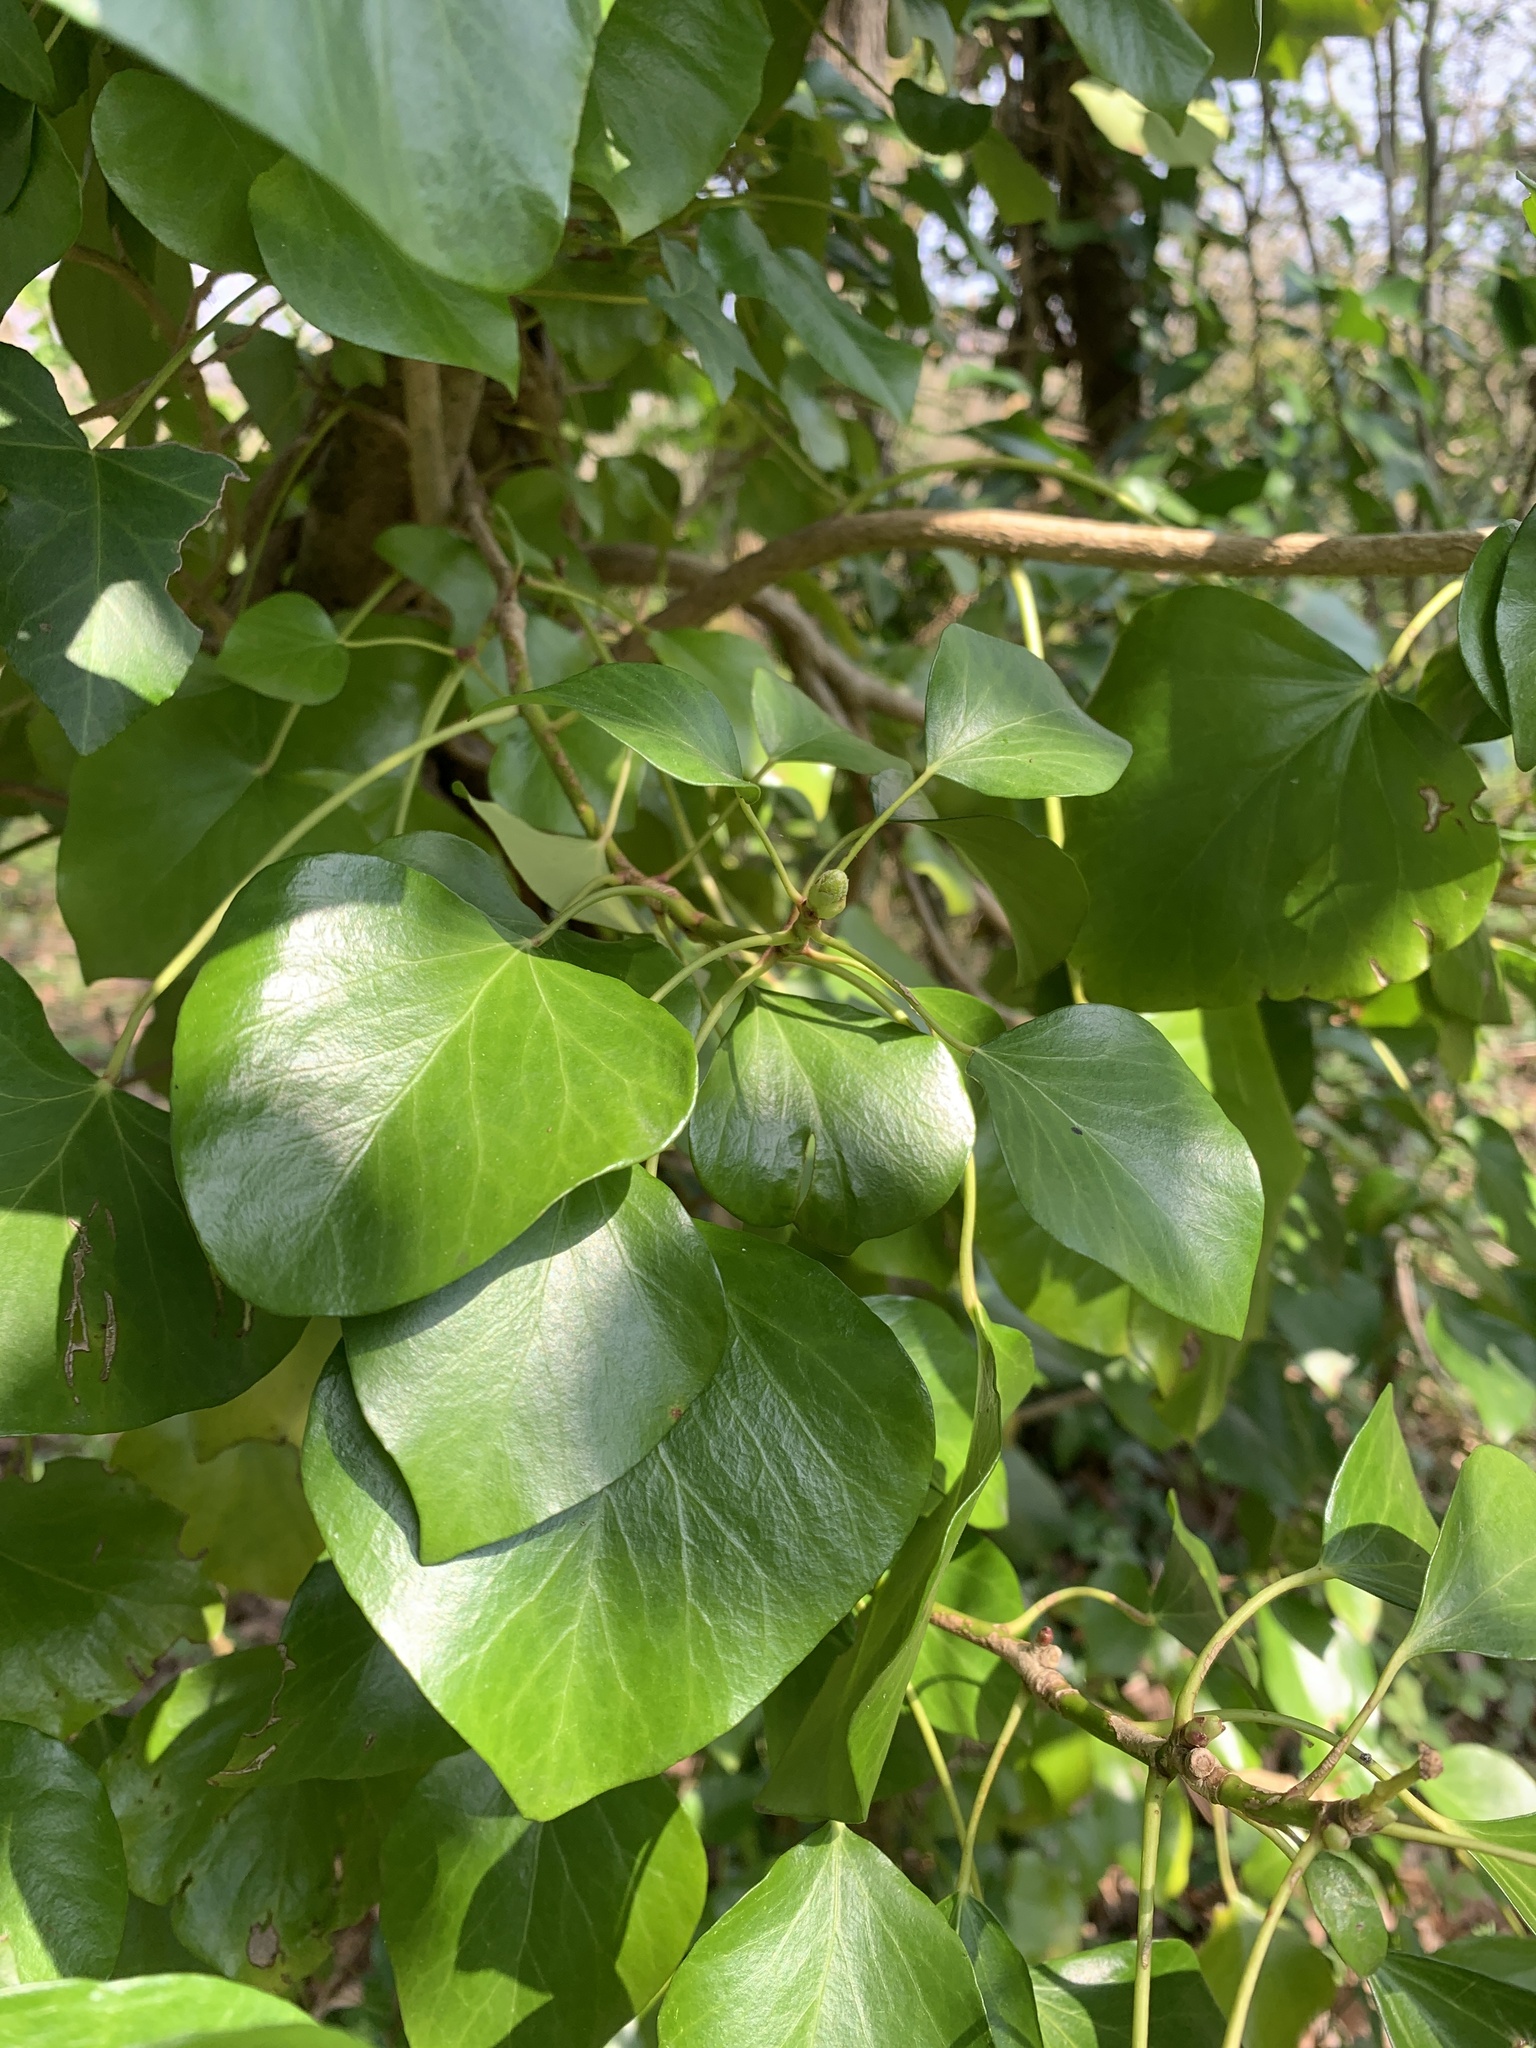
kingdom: Plantae
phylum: Tracheophyta
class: Magnoliopsida
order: Apiales
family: Araliaceae
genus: Hedera
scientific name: Hedera helix
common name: Ivy
